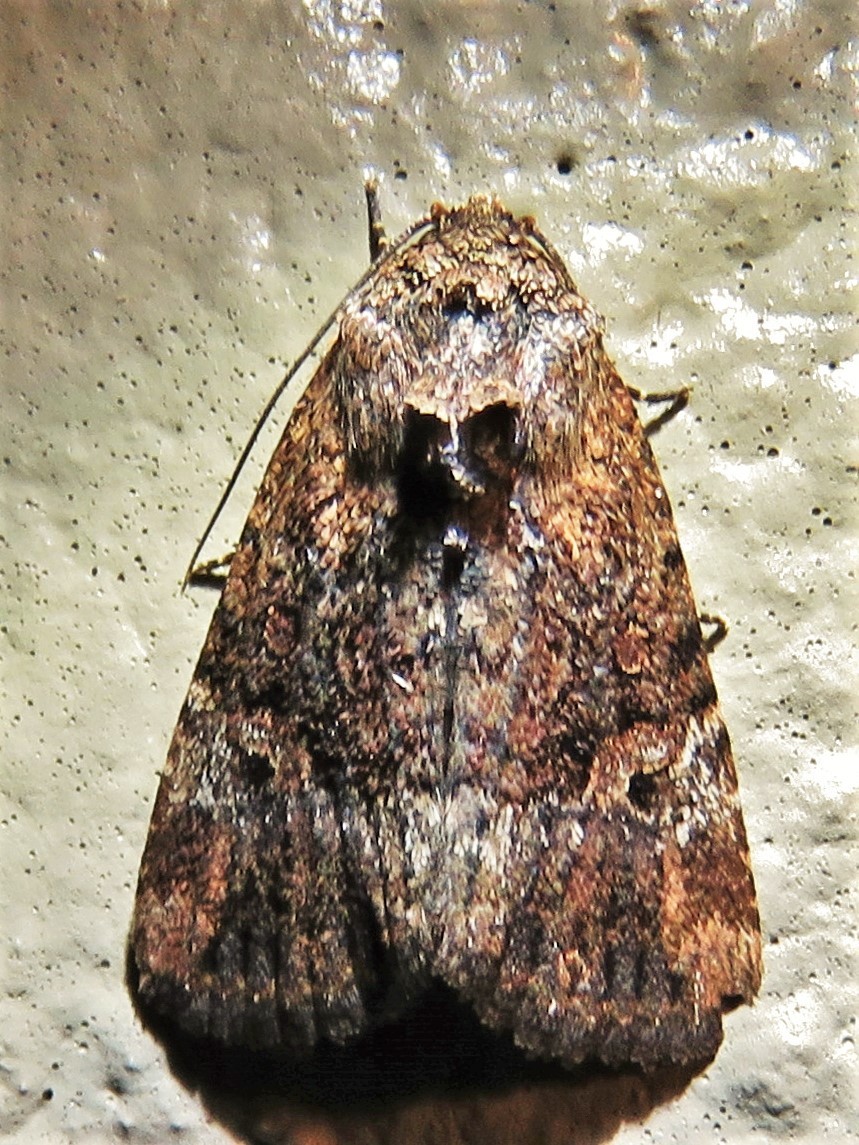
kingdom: Animalia
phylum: Arthropoda
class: Insecta
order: Lepidoptera
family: Noctuidae
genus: Elaphria
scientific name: Elaphria chalcedonia
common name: Chalcedony midget
